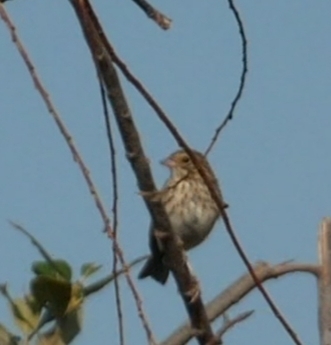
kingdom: Animalia
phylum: Chordata
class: Aves
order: Passeriformes
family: Passerellidae
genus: Passerculus
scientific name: Passerculus sandwichensis
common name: Savannah sparrow
